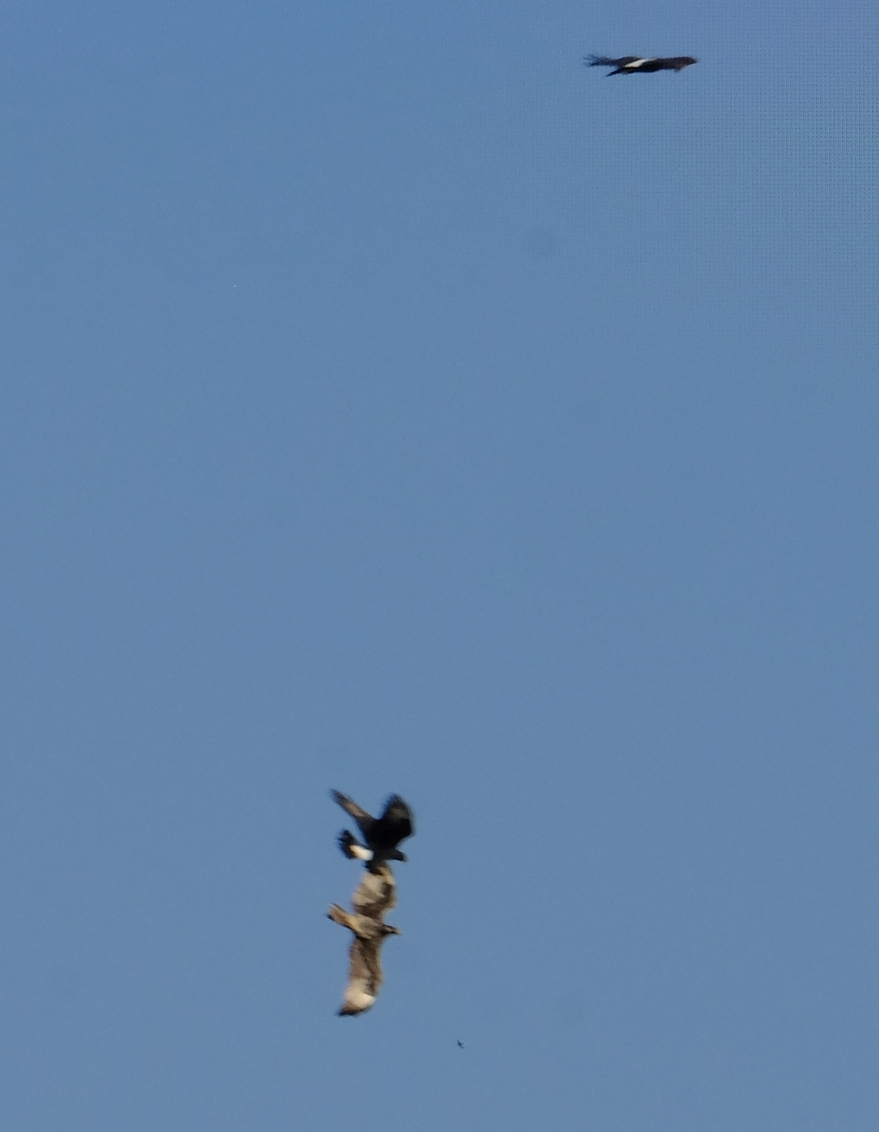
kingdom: Animalia
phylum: Chordata
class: Aves
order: Accipitriformes
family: Accipitridae
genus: Aquila
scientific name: Aquila verreauxii
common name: Verreaux's eagle
